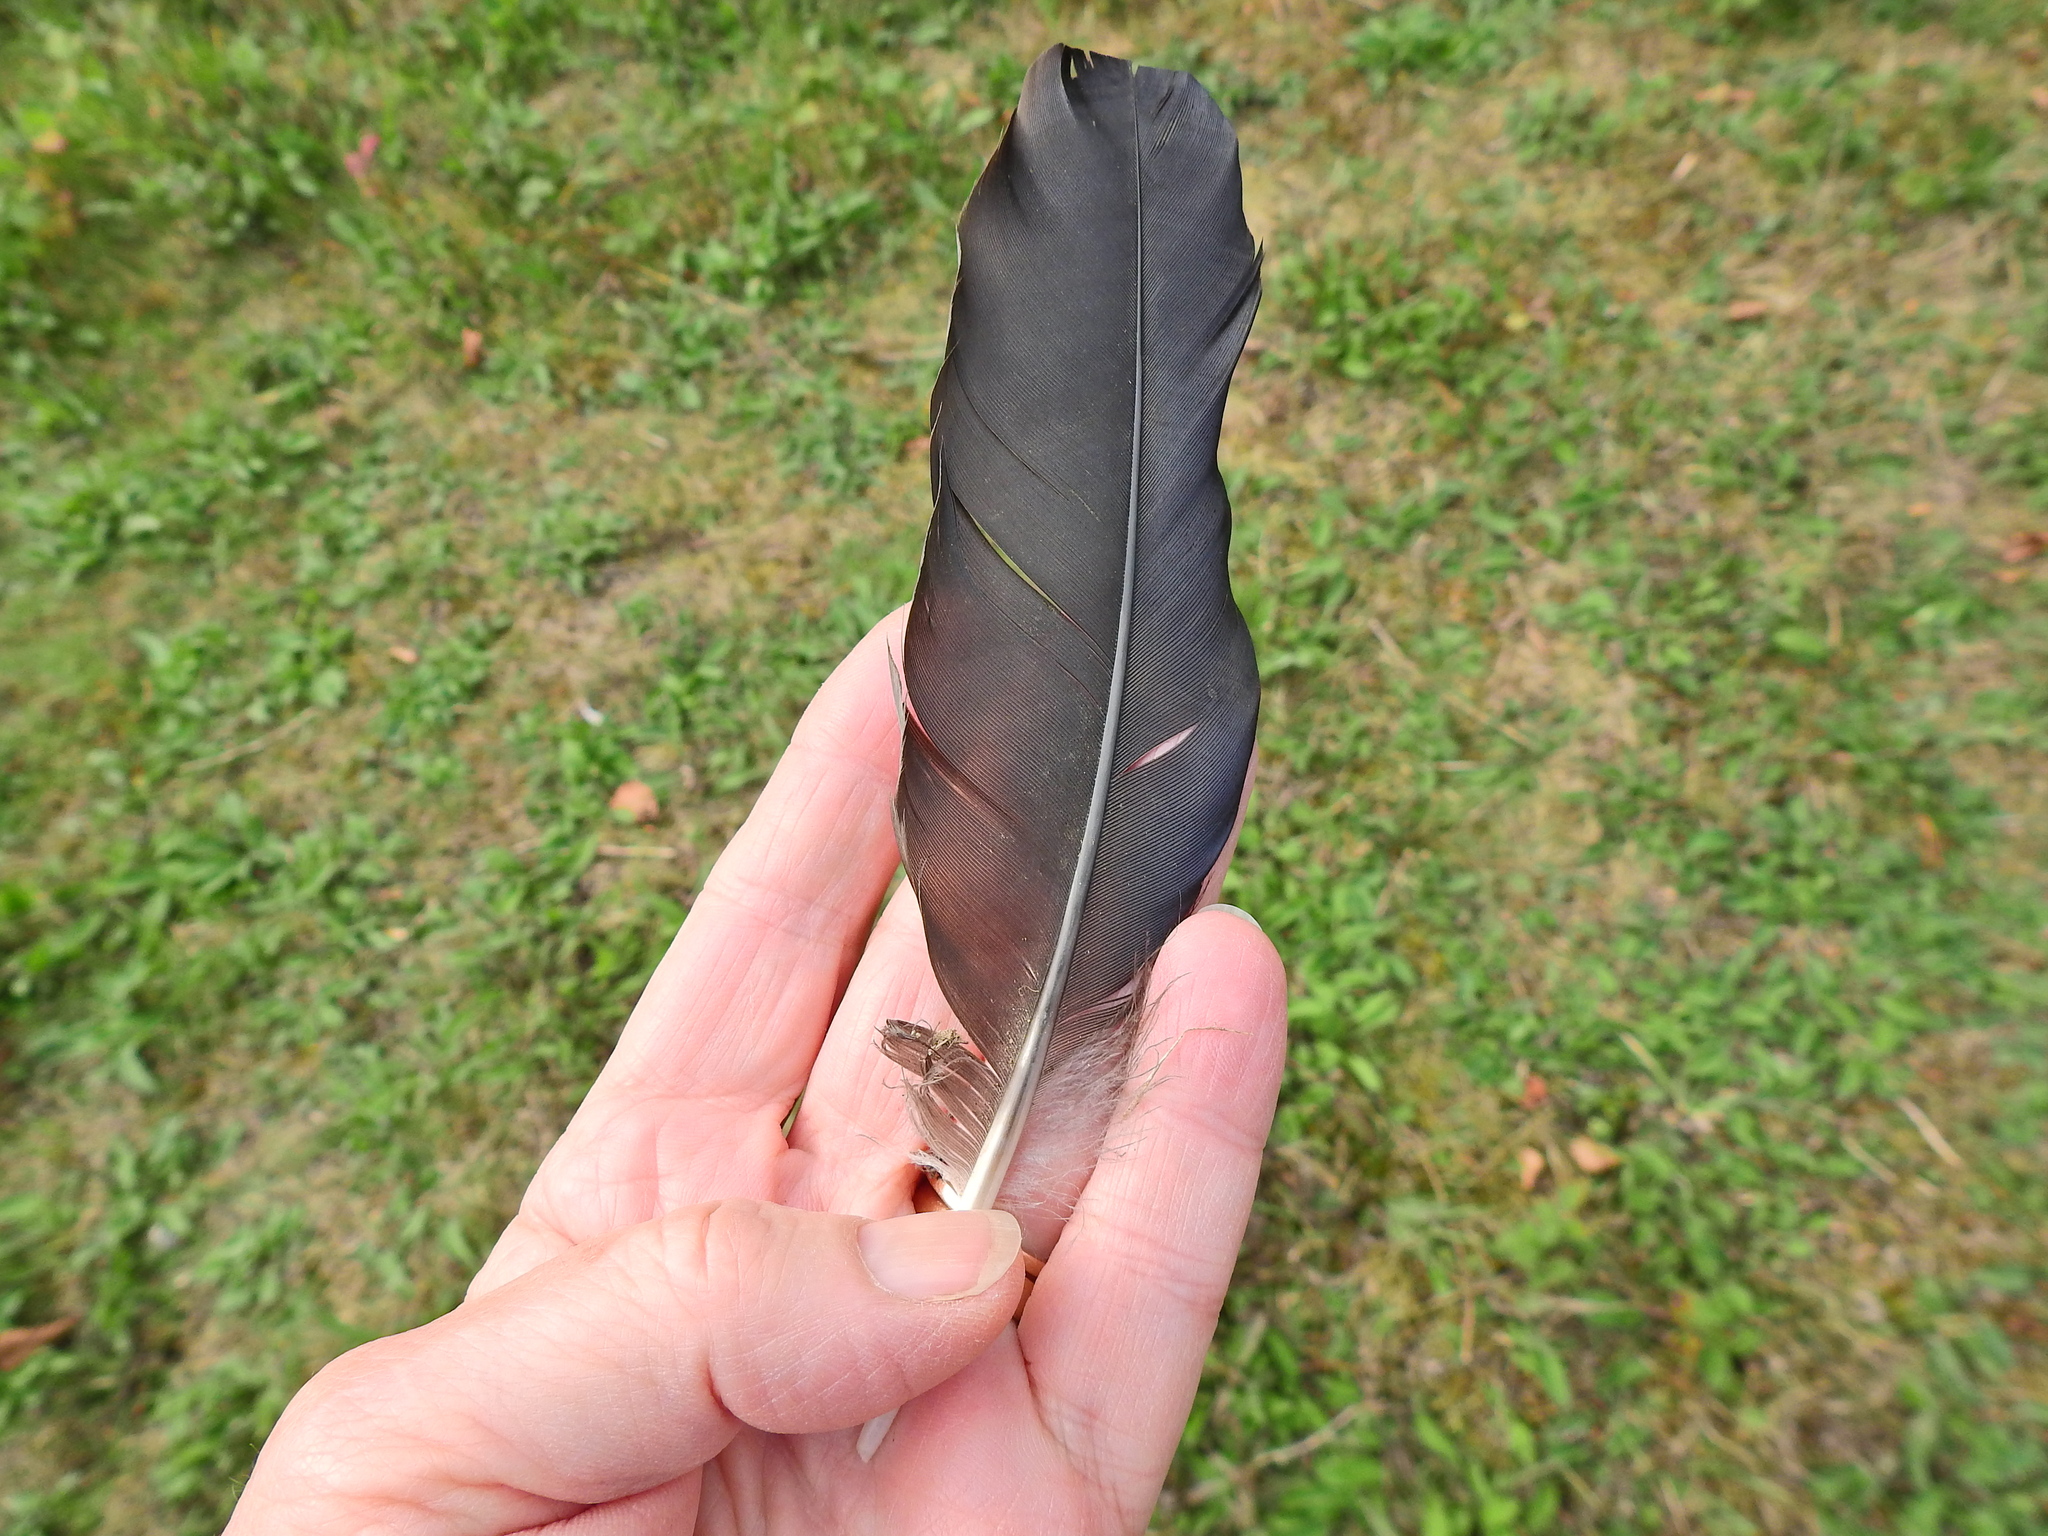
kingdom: Animalia
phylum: Chordata
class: Aves
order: Passeriformes
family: Corvidae
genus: Corvus
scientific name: Corvus corone
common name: Carrion crow
